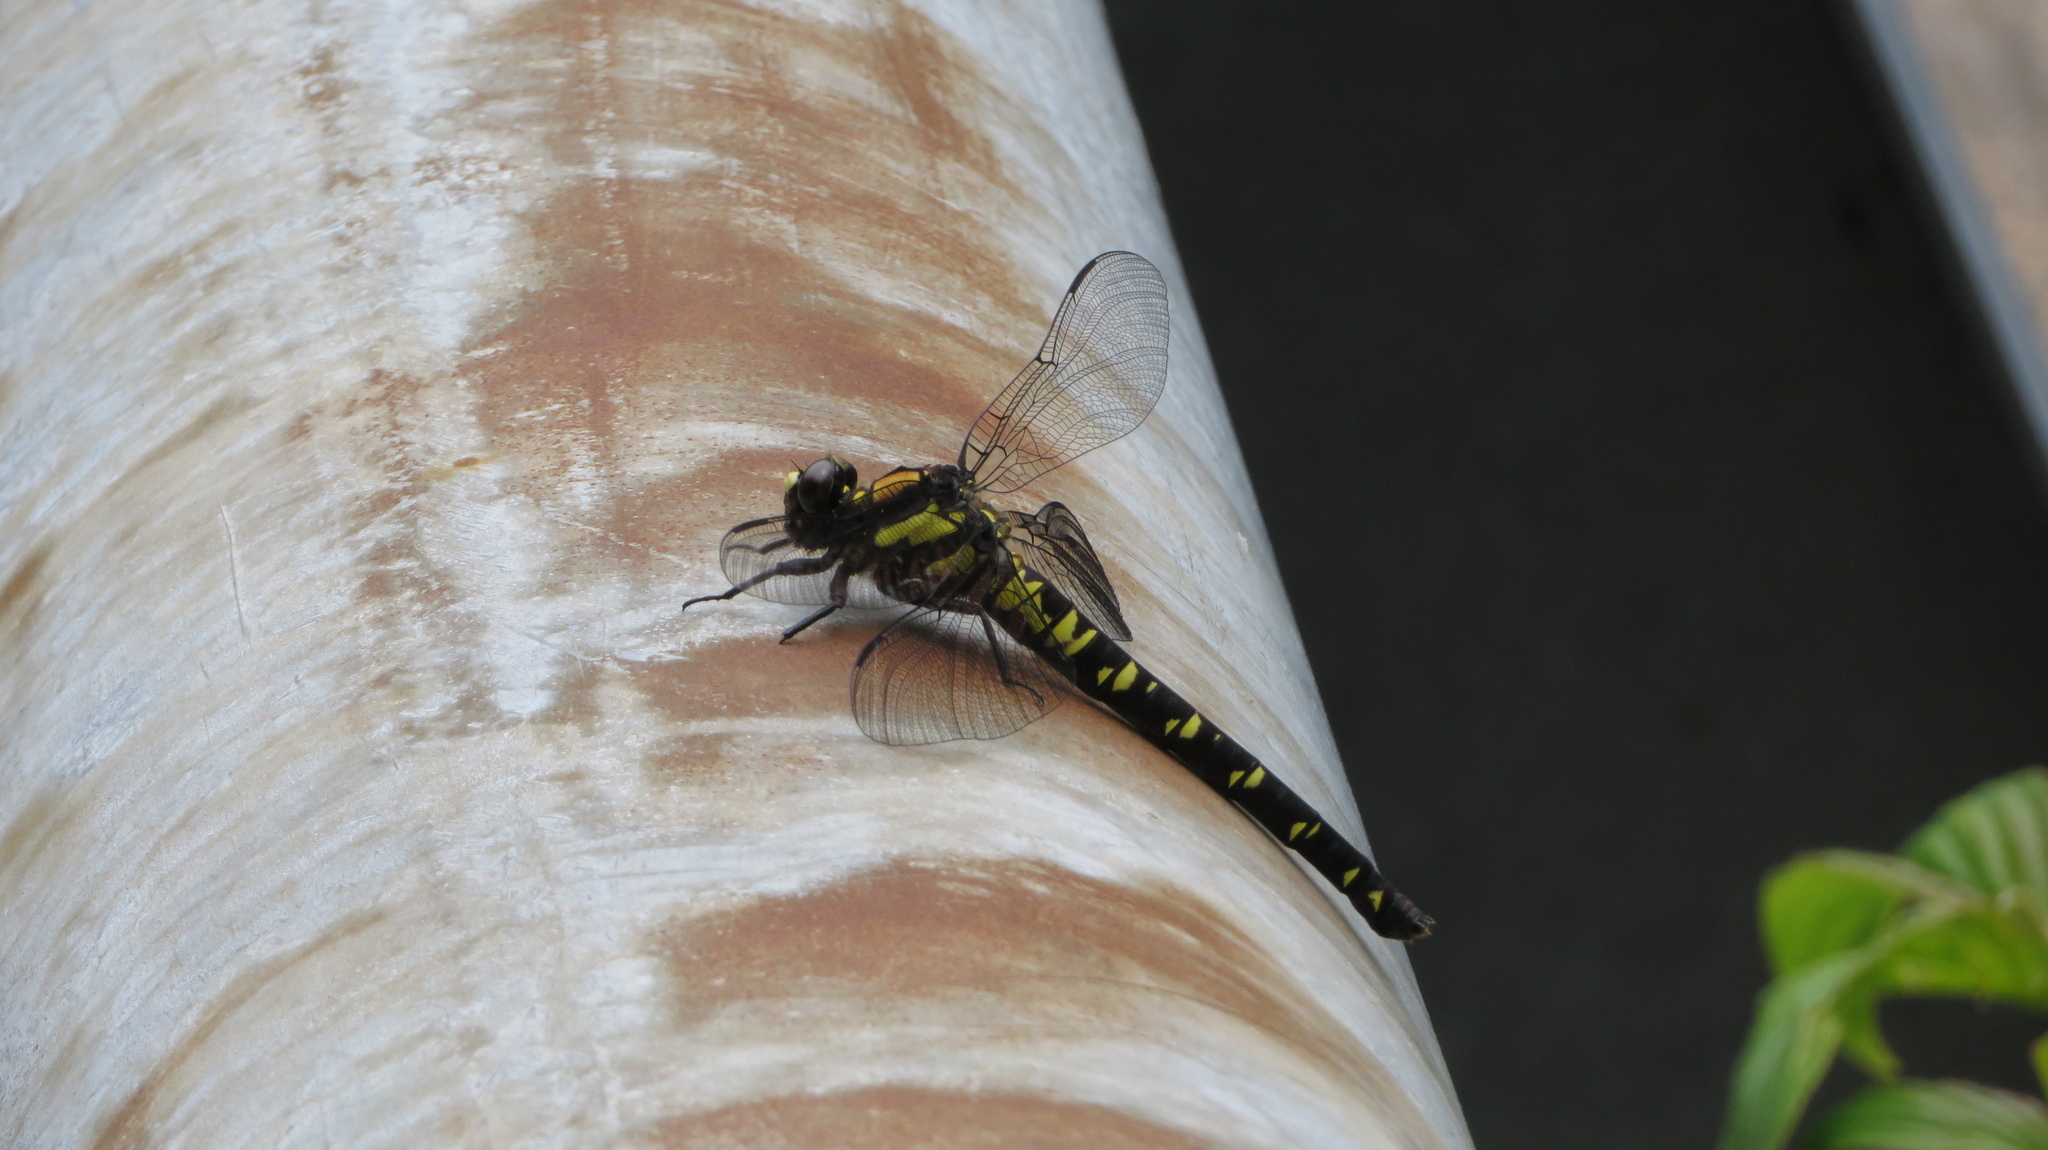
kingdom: Animalia
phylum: Arthropoda
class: Insecta
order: Odonata
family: Petaluridae
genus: Tanypteryx
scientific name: Tanypteryx pryeri
